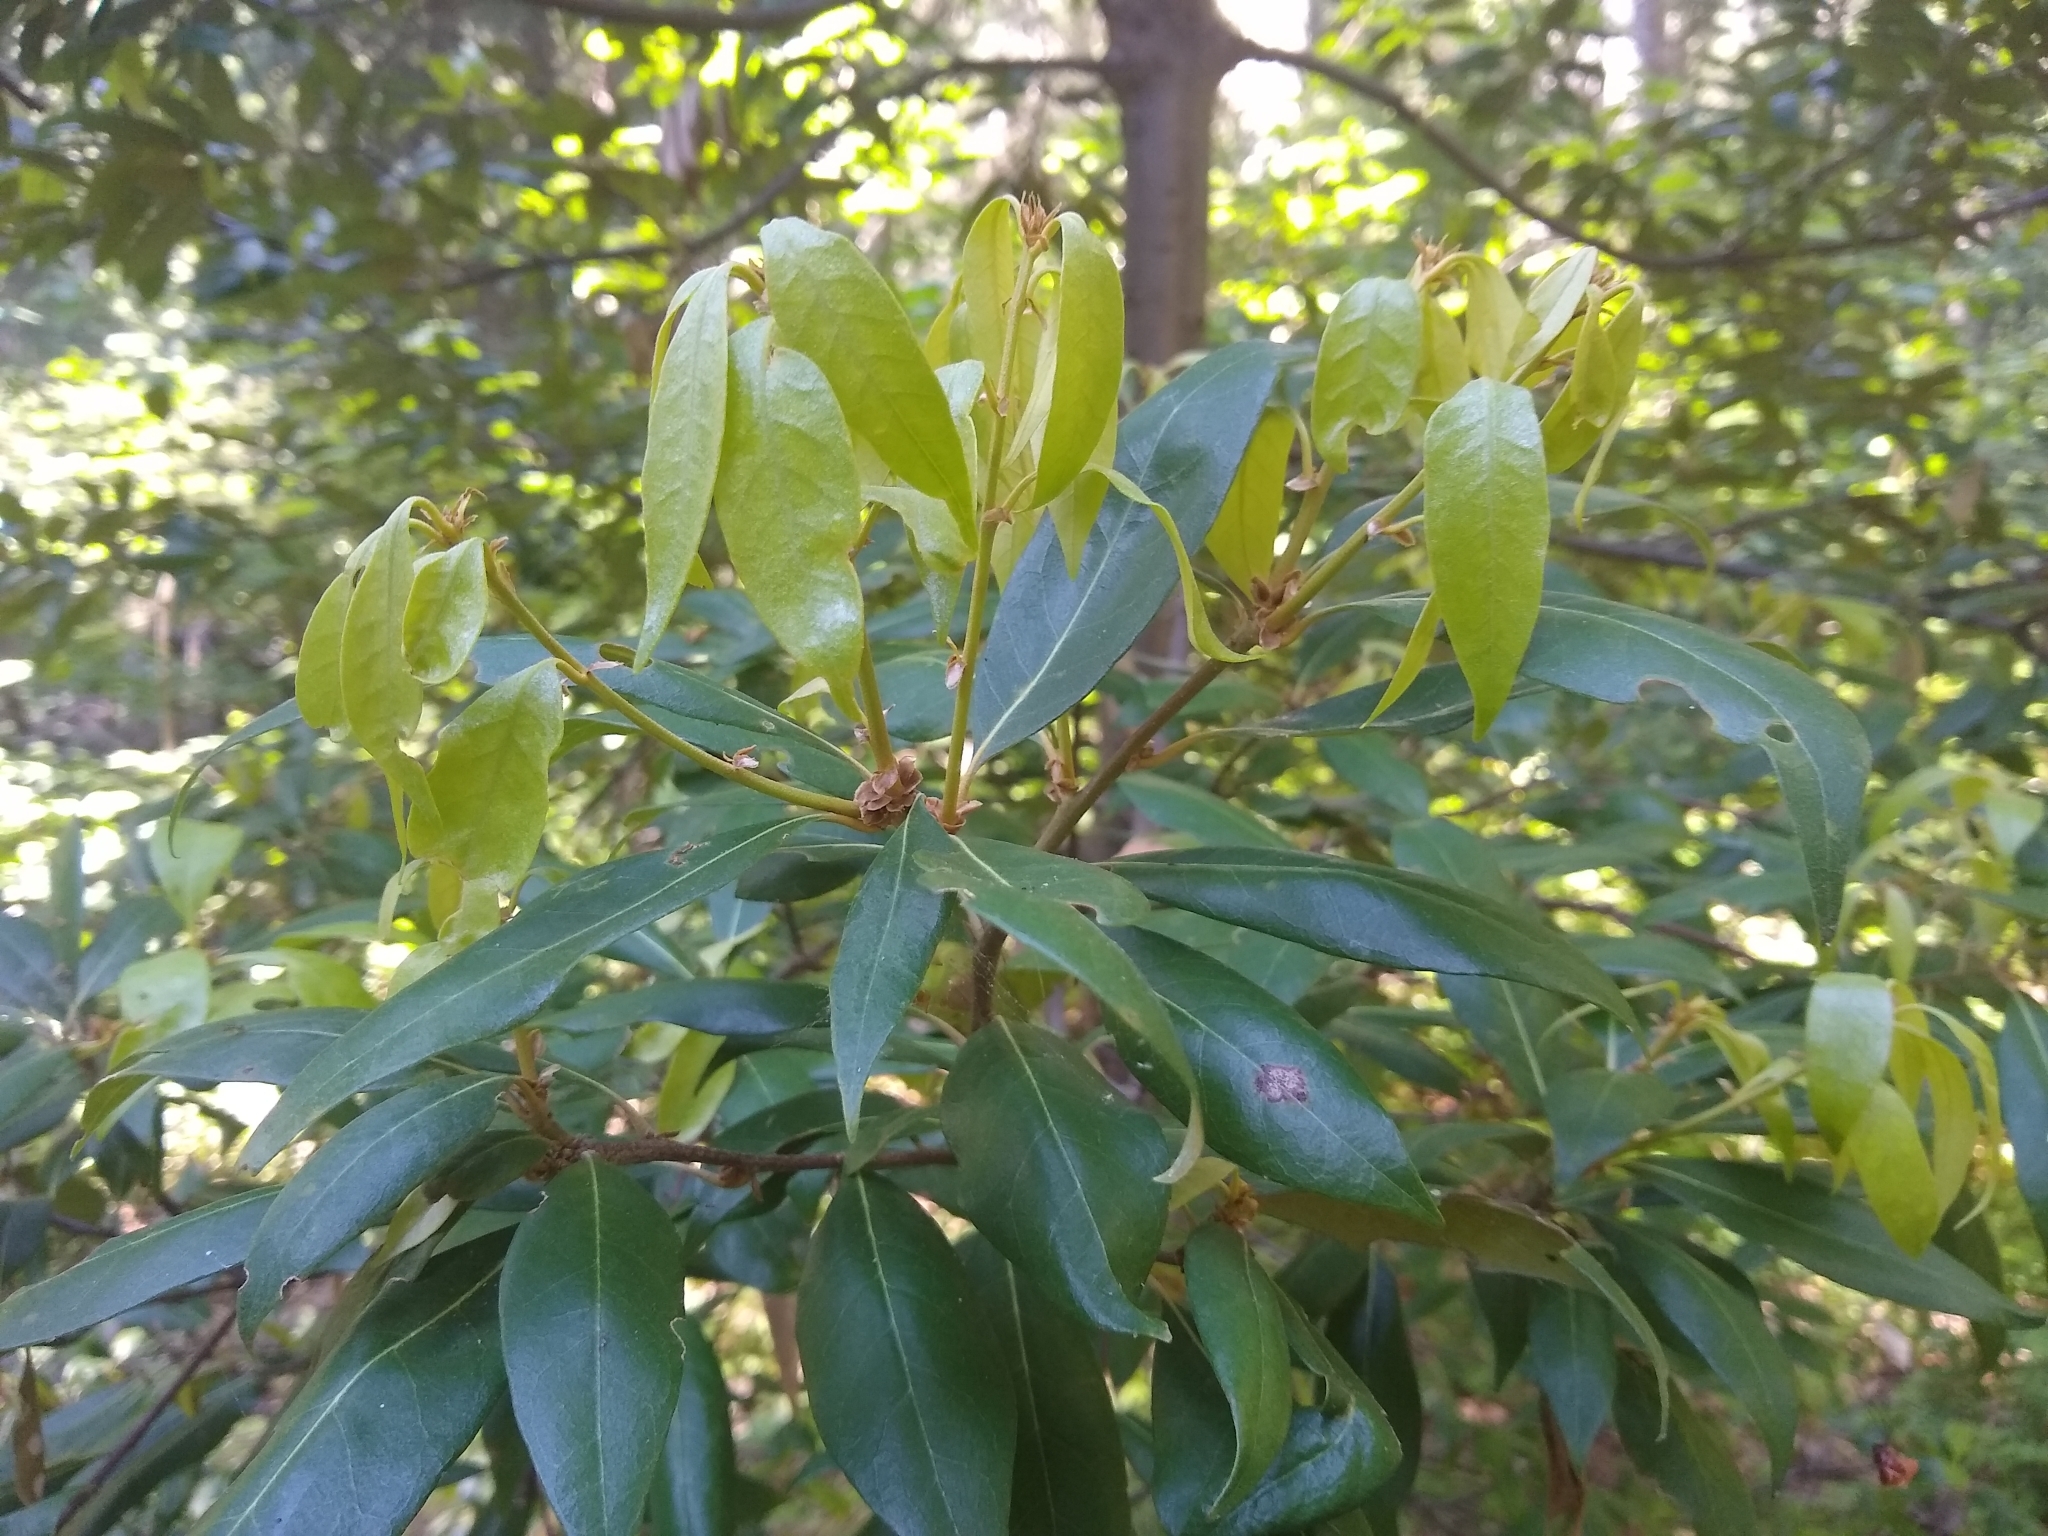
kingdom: Plantae
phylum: Tracheophyta
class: Magnoliopsida
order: Fagales
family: Fagaceae
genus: Chrysolepis
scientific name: Chrysolepis chrysophylla
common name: Giant chinquapin
